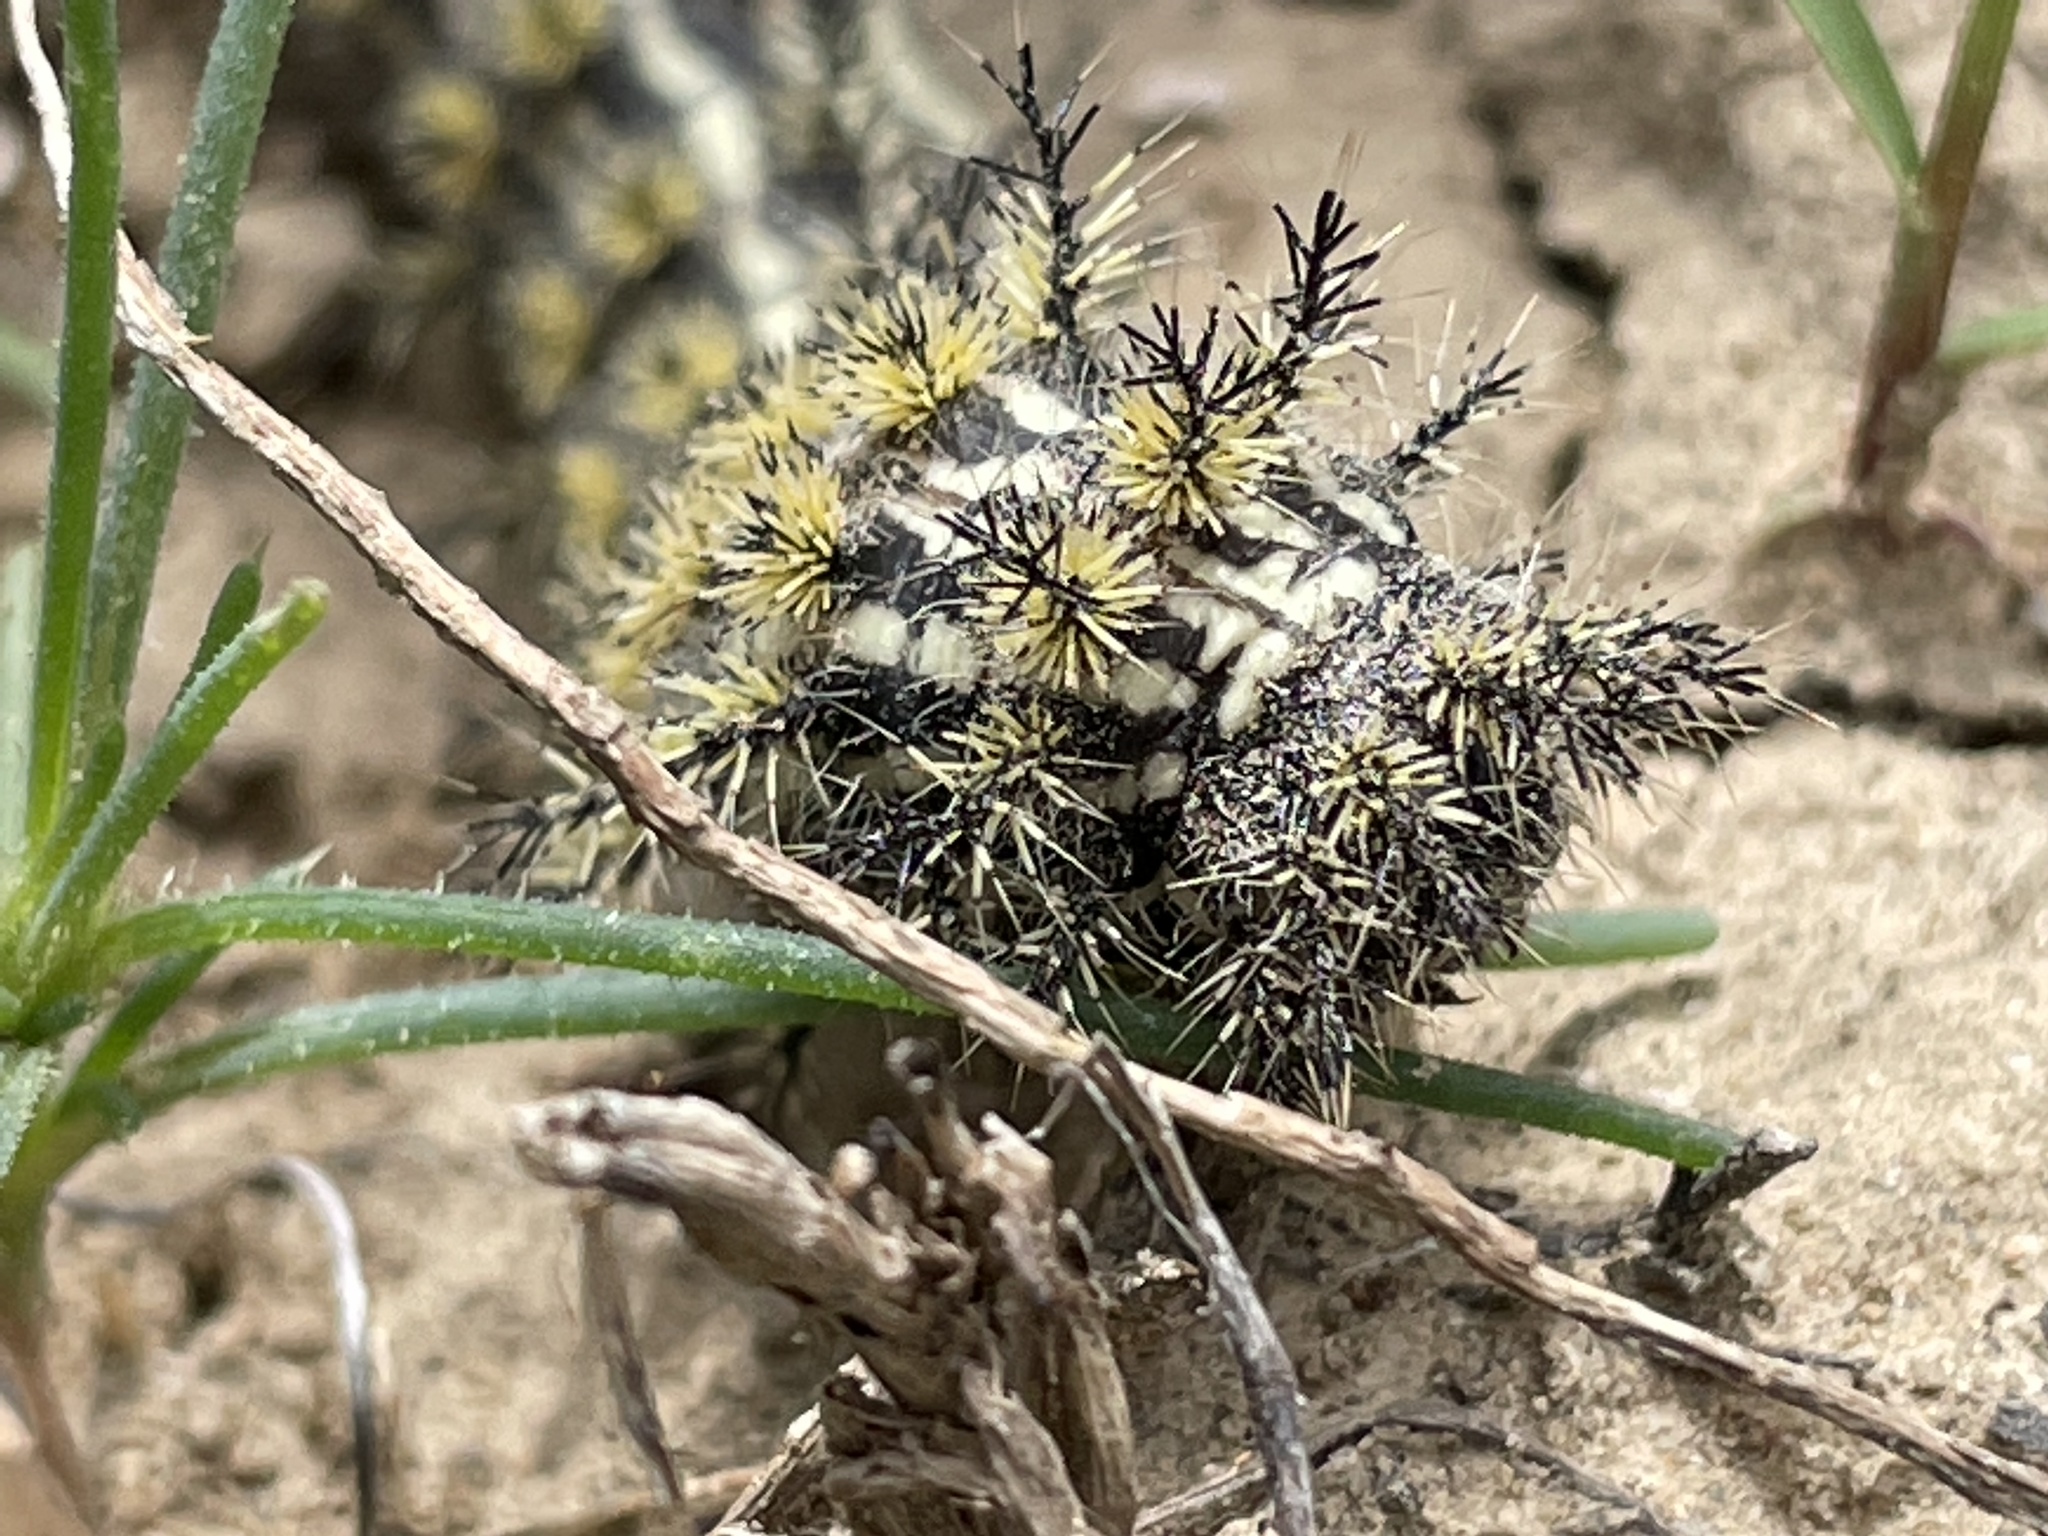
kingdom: Animalia
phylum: Arthropoda
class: Insecta
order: Lepidoptera
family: Saturniidae
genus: Hemileuca
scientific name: Hemileuca hera
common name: Hera sheepmoth
